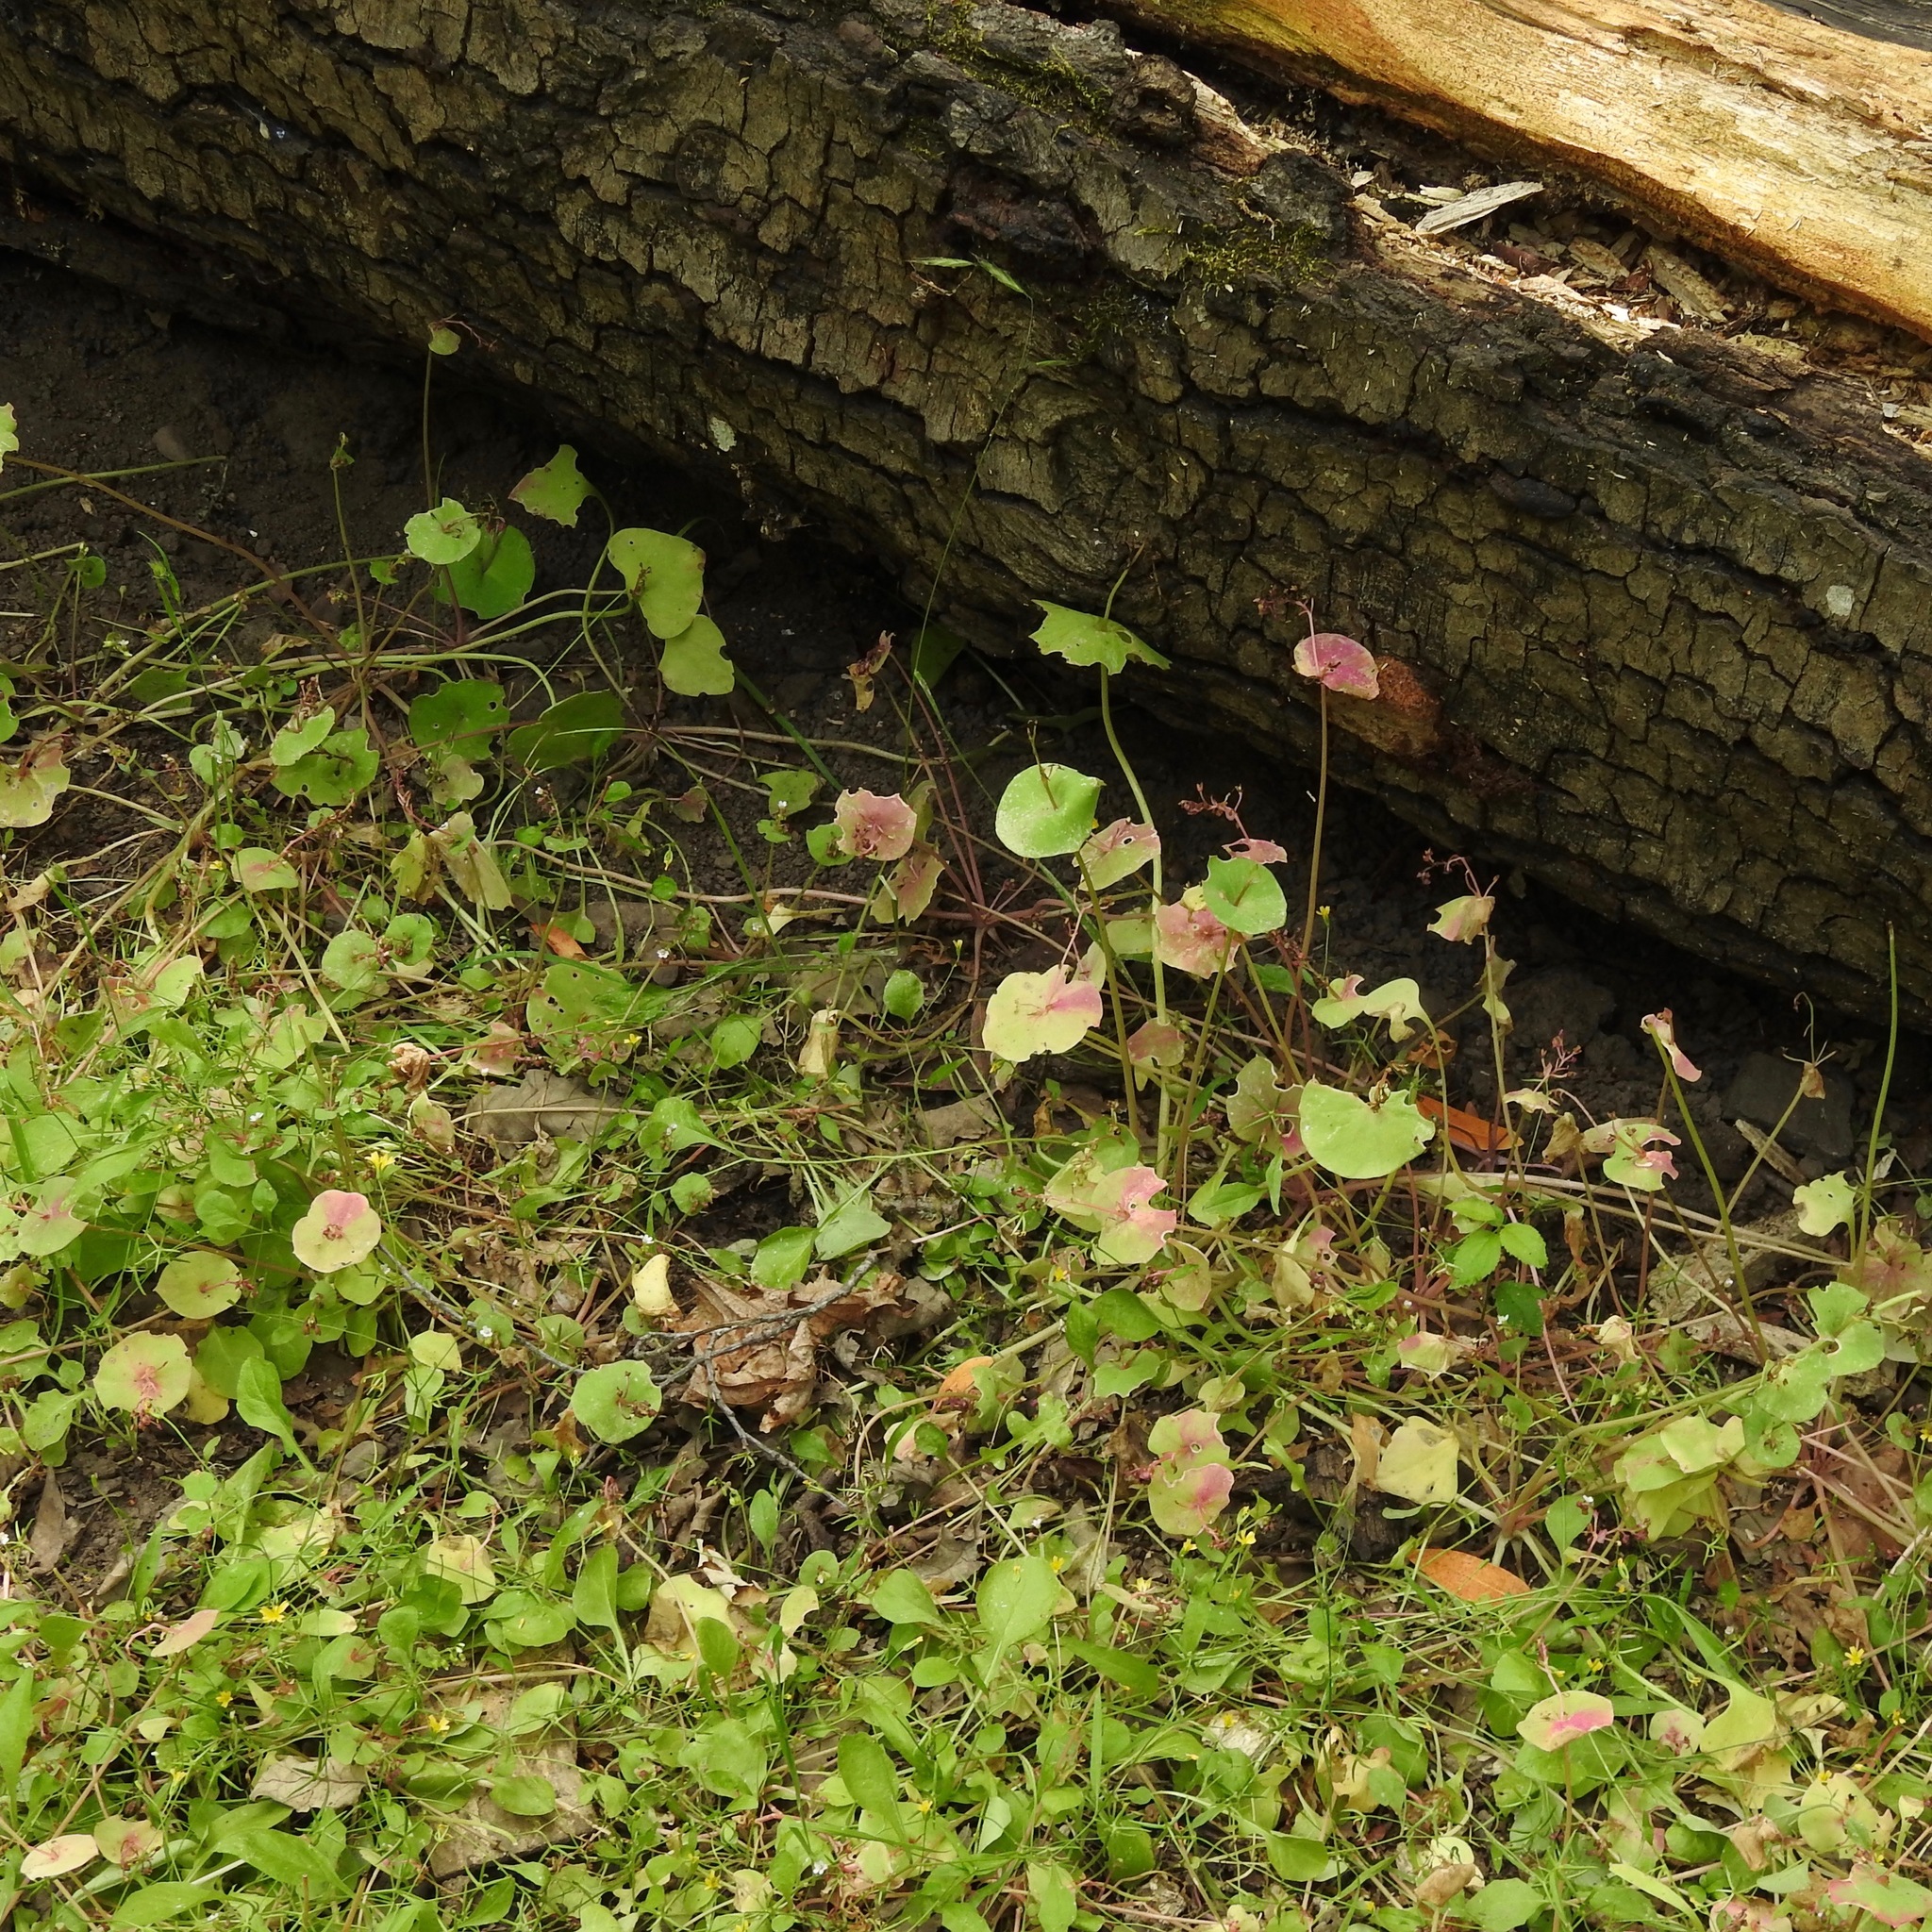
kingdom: Plantae
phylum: Tracheophyta
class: Magnoliopsida
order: Caryophyllales
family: Montiaceae
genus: Claytonia
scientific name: Claytonia perfoliata
